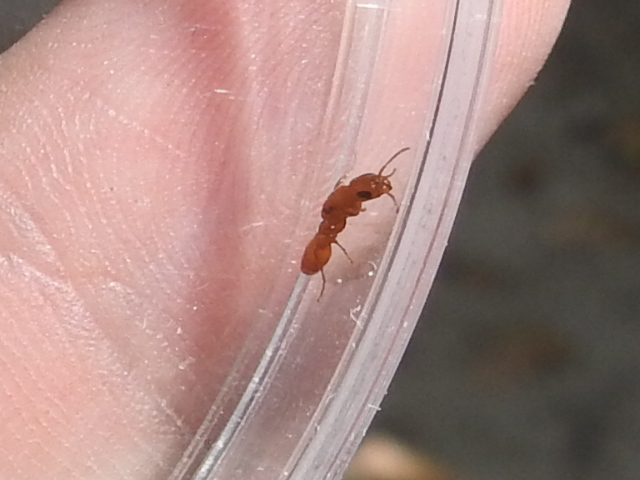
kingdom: Animalia
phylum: Arthropoda
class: Insecta
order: Hymenoptera
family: Formicidae
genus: Pseudomyrmex
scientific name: Pseudomyrmex apache
